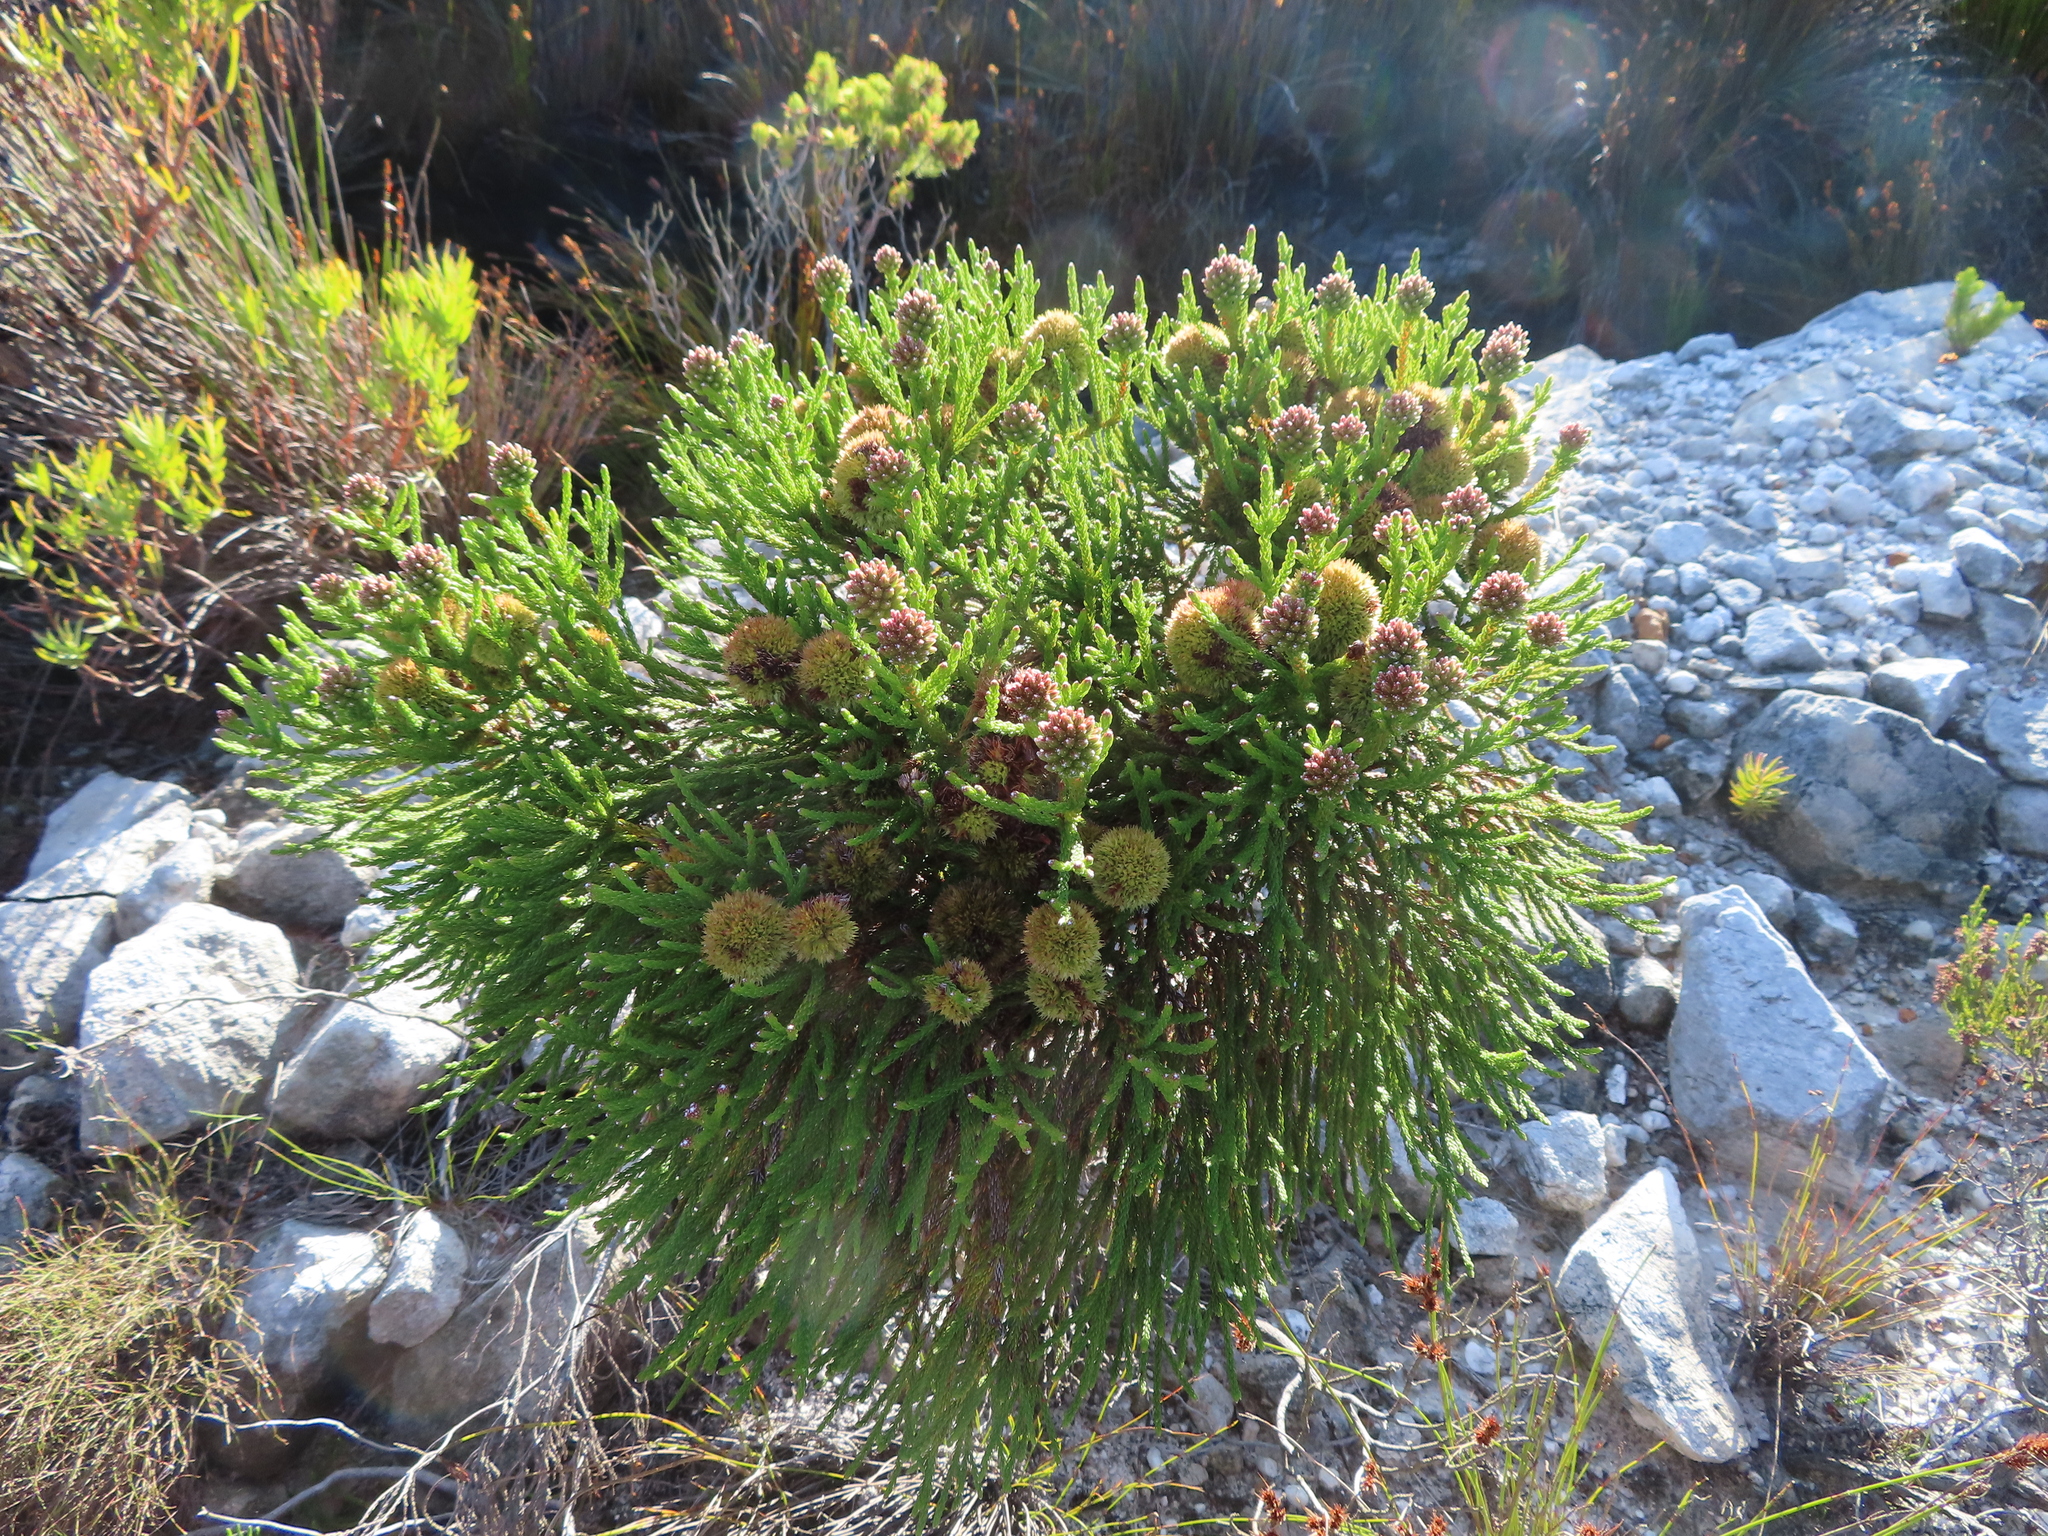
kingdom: Plantae
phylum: Tracheophyta
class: Magnoliopsida
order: Bruniales
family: Bruniaceae
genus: Brunia
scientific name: Brunia fragarioides
